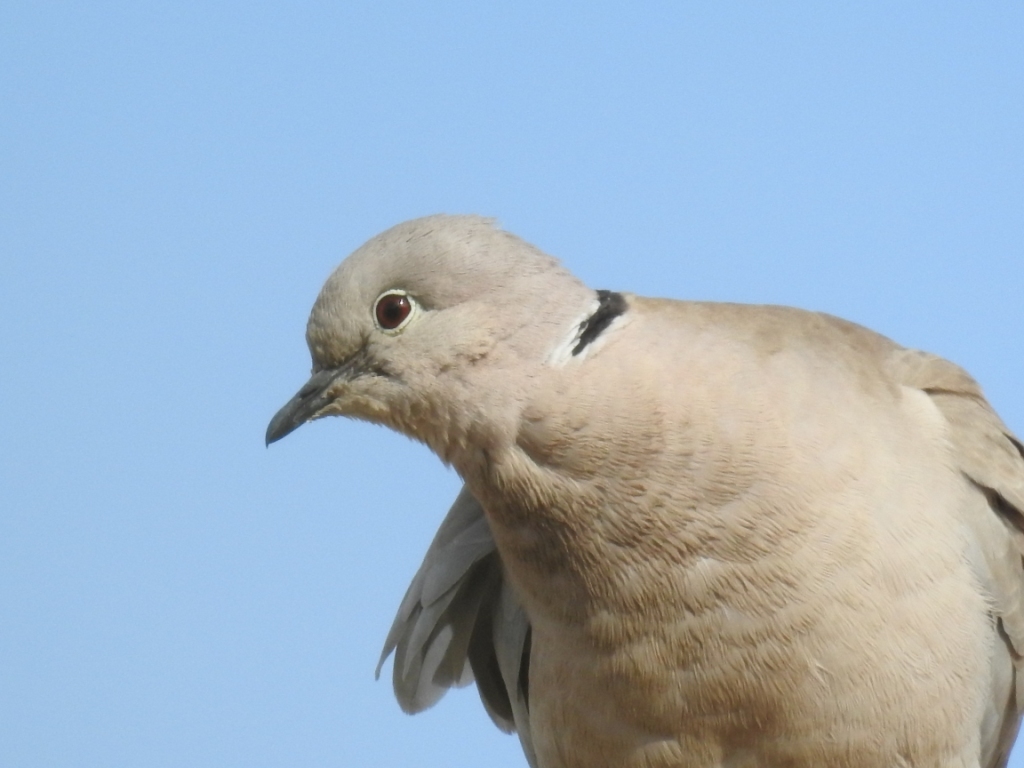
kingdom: Animalia
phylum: Chordata
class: Aves
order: Columbiformes
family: Columbidae
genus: Streptopelia
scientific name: Streptopelia decaocto
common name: Eurasian collared dove
